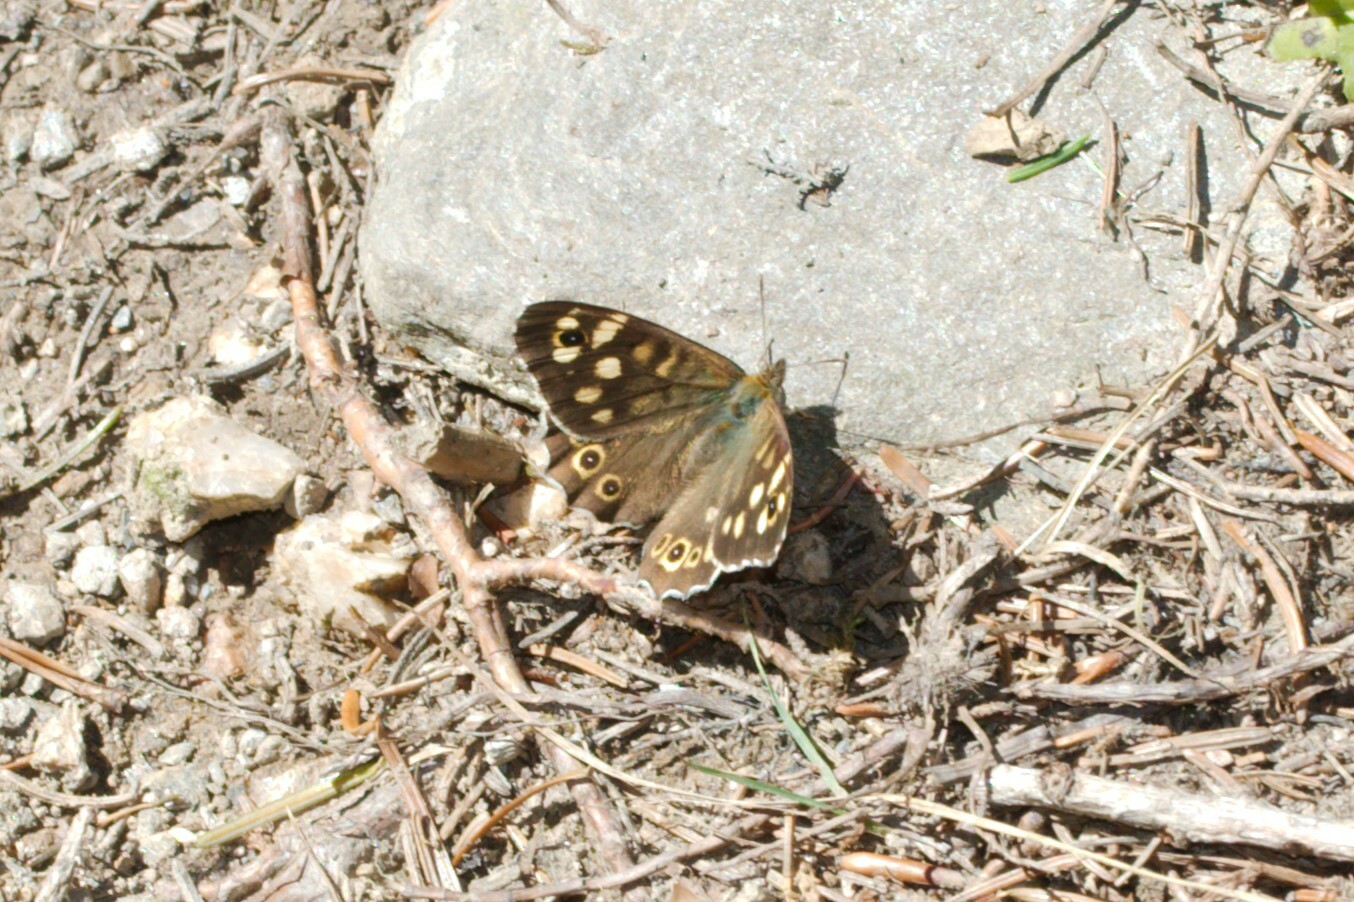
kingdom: Animalia
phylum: Arthropoda
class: Insecta
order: Lepidoptera
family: Nymphalidae
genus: Pararge
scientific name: Pararge aegeria
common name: Speckled wood
